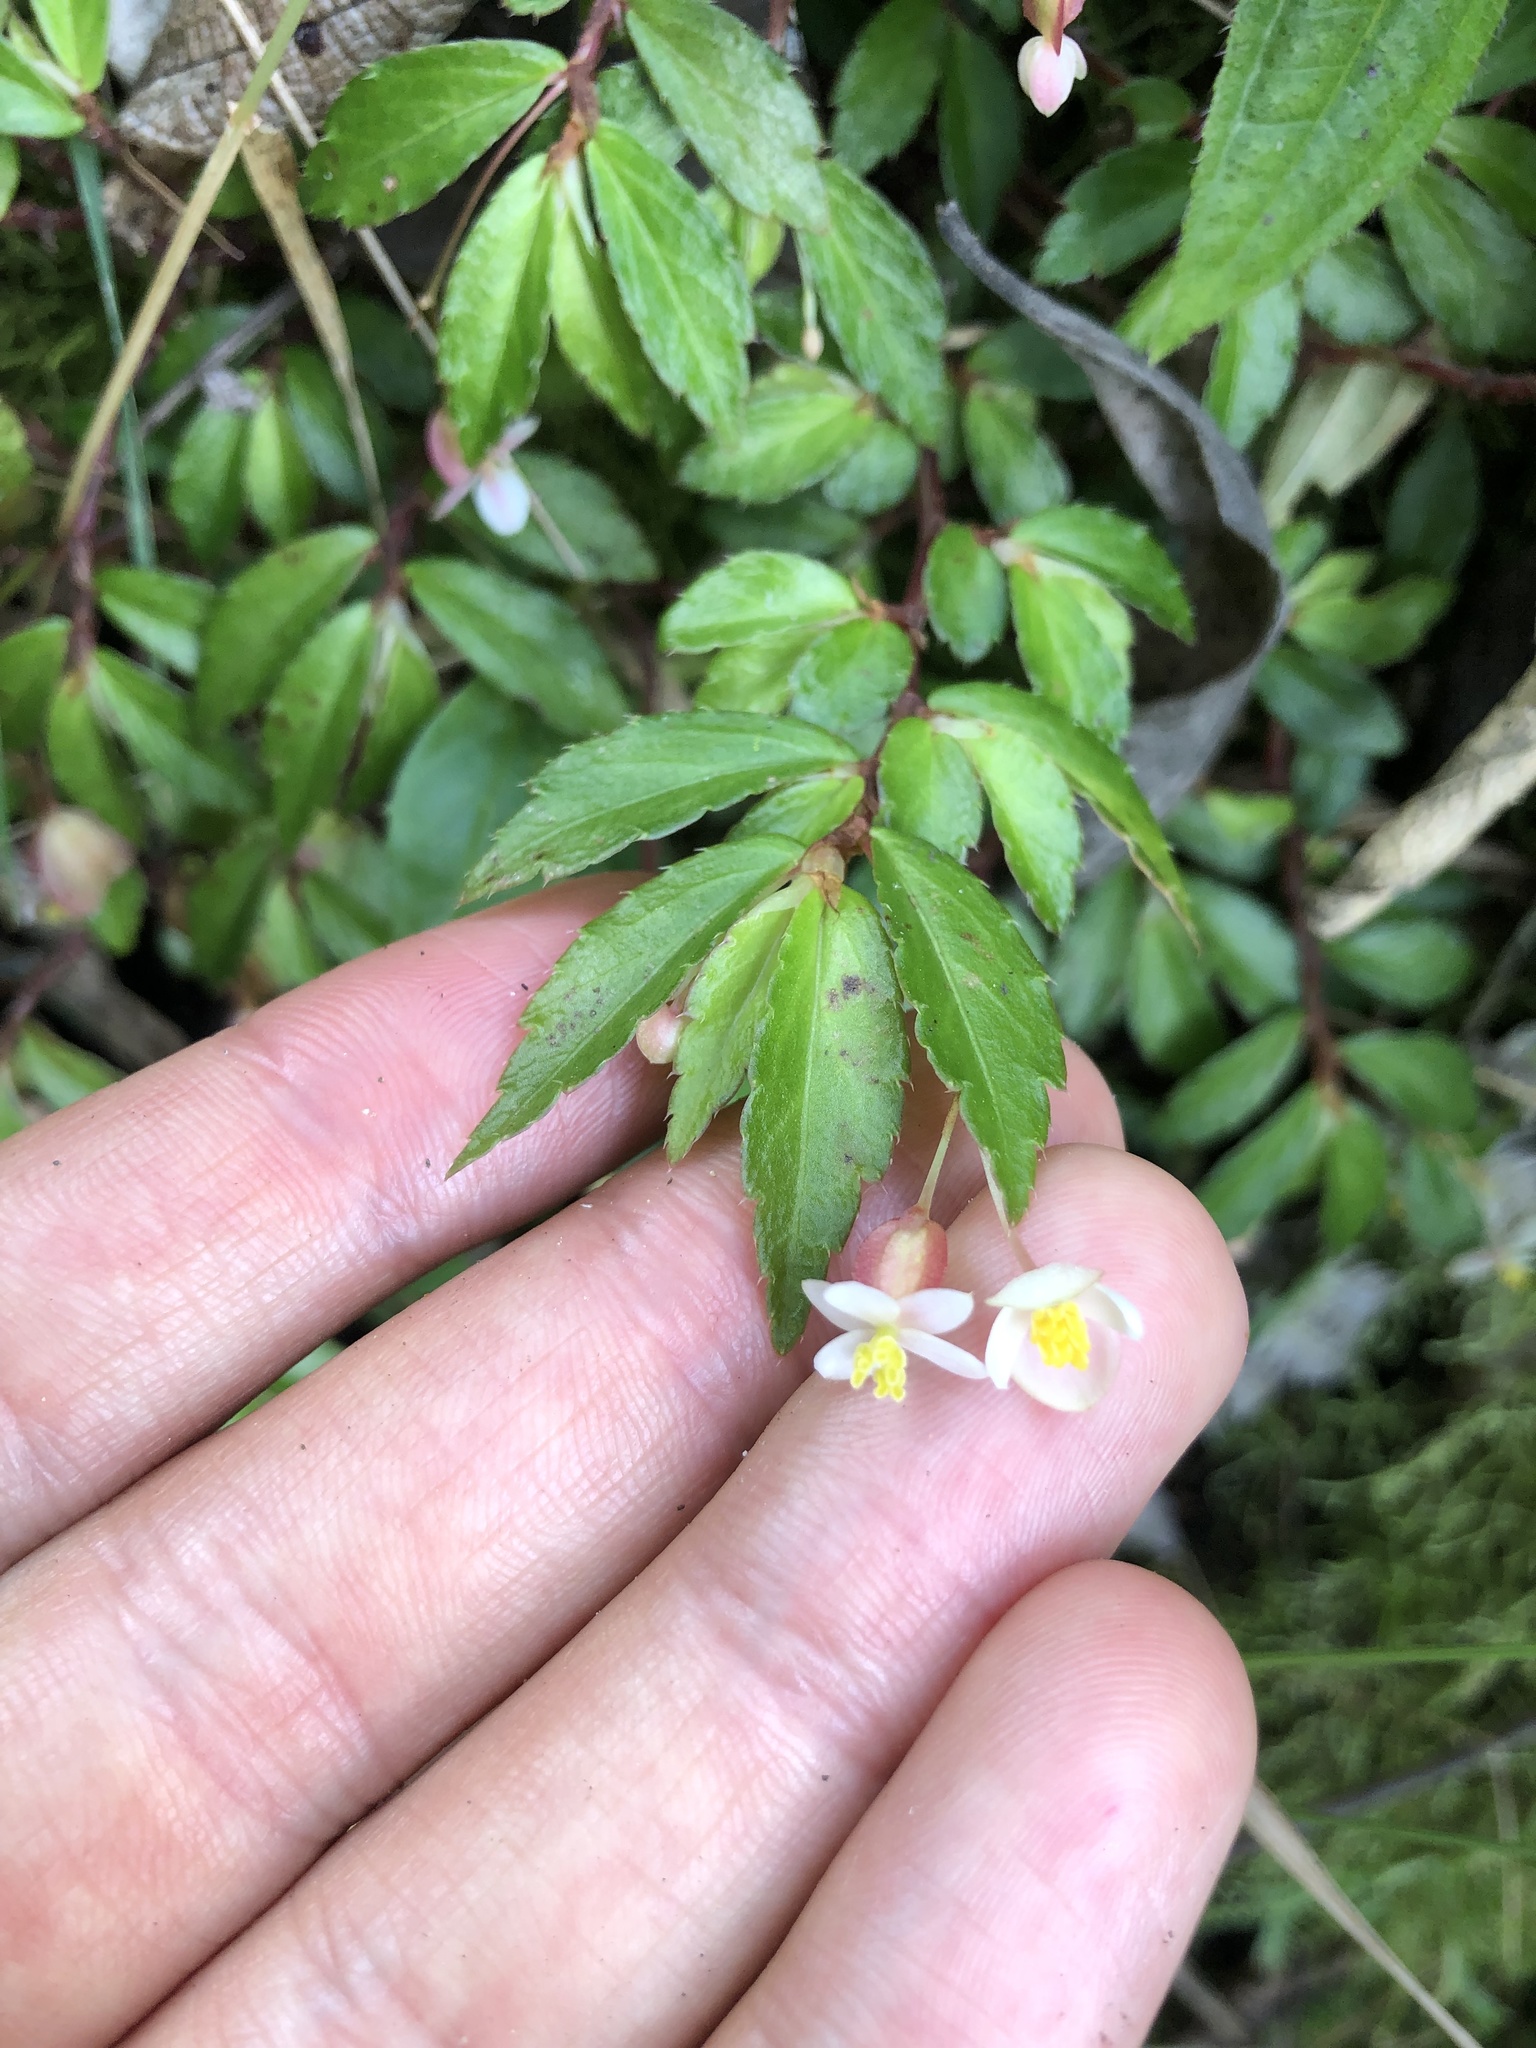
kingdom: Plantae
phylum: Tracheophyta
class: Magnoliopsida
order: Cucurbitales
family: Begoniaceae
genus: Begonia
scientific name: Begonia foliosa
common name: Fern begonia
